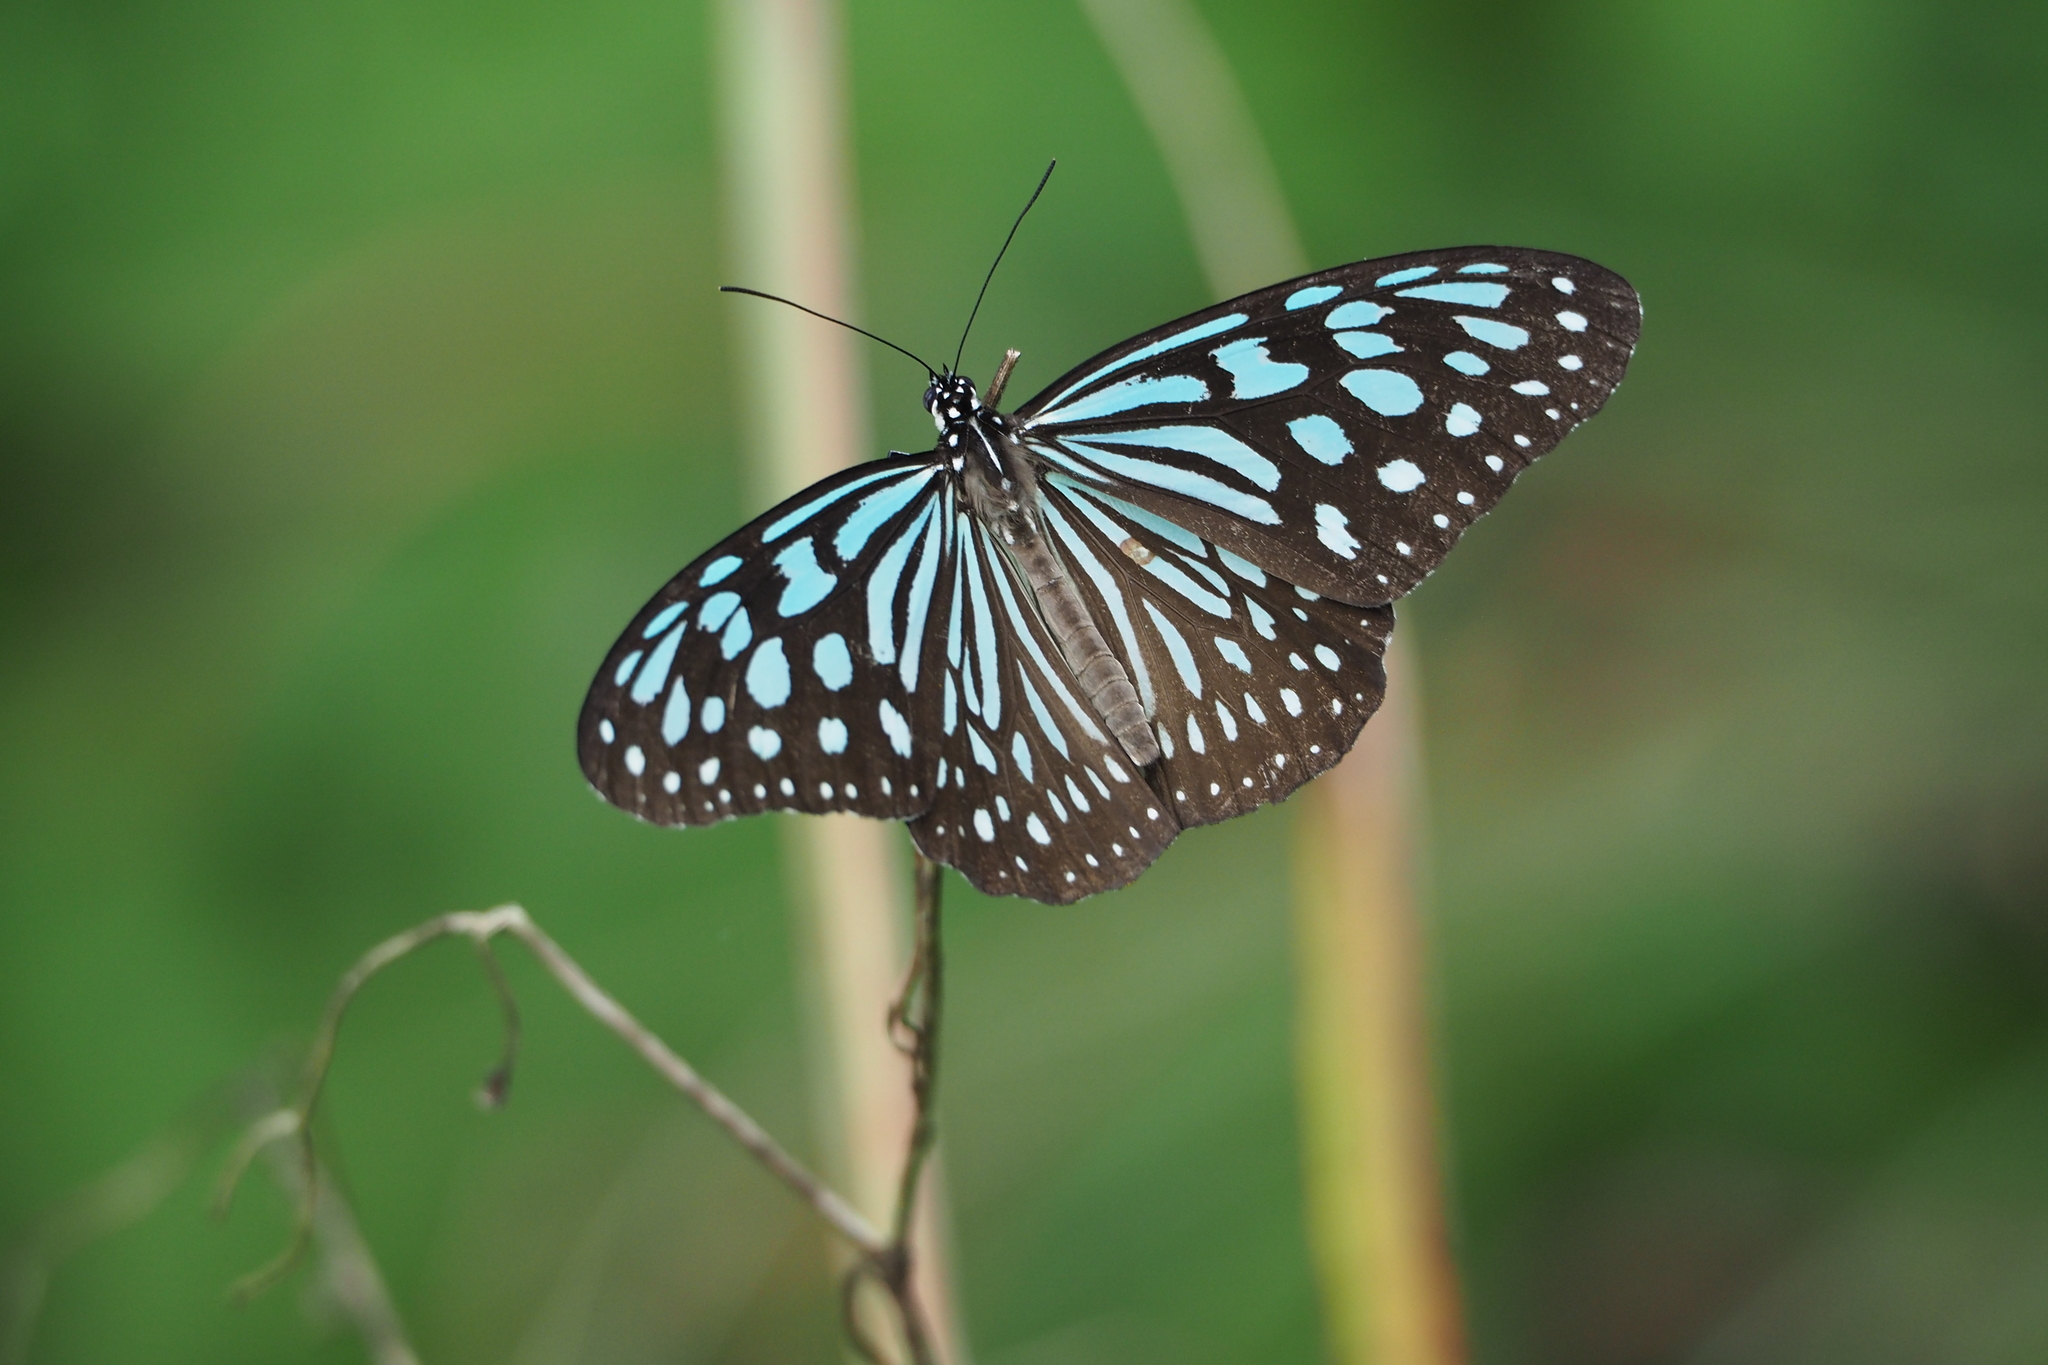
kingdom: Animalia
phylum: Arthropoda
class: Insecta
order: Lepidoptera
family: Nymphalidae
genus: Ideopsis
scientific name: Ideopsis similis
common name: Ceylon blue glassy tiger
